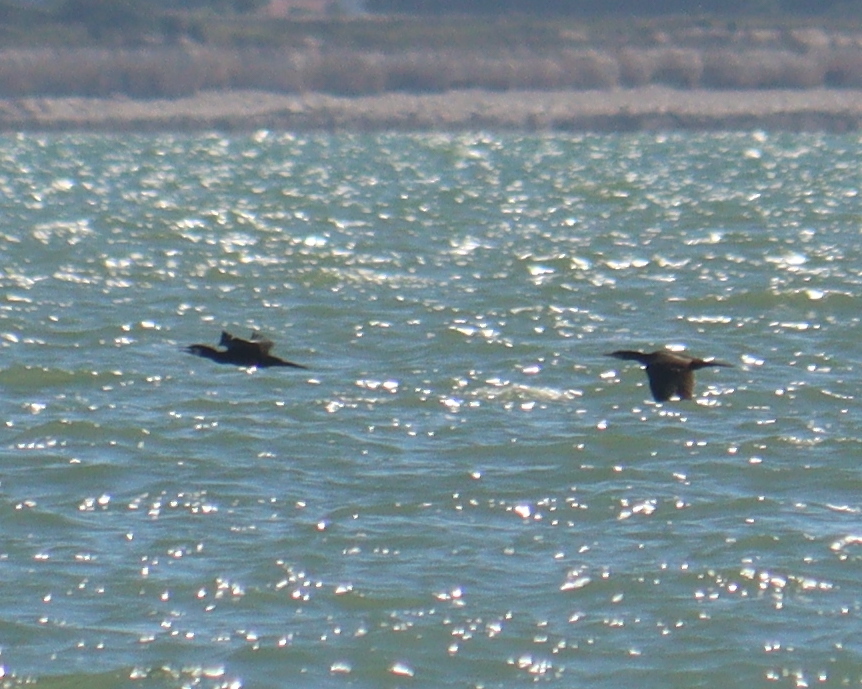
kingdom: Animalia
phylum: Chordata
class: Aves
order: Suliformes
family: Phalacrocoracidae
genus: Phalacrocorax
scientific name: Phalacrocorax carbo
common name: Great cormorant
